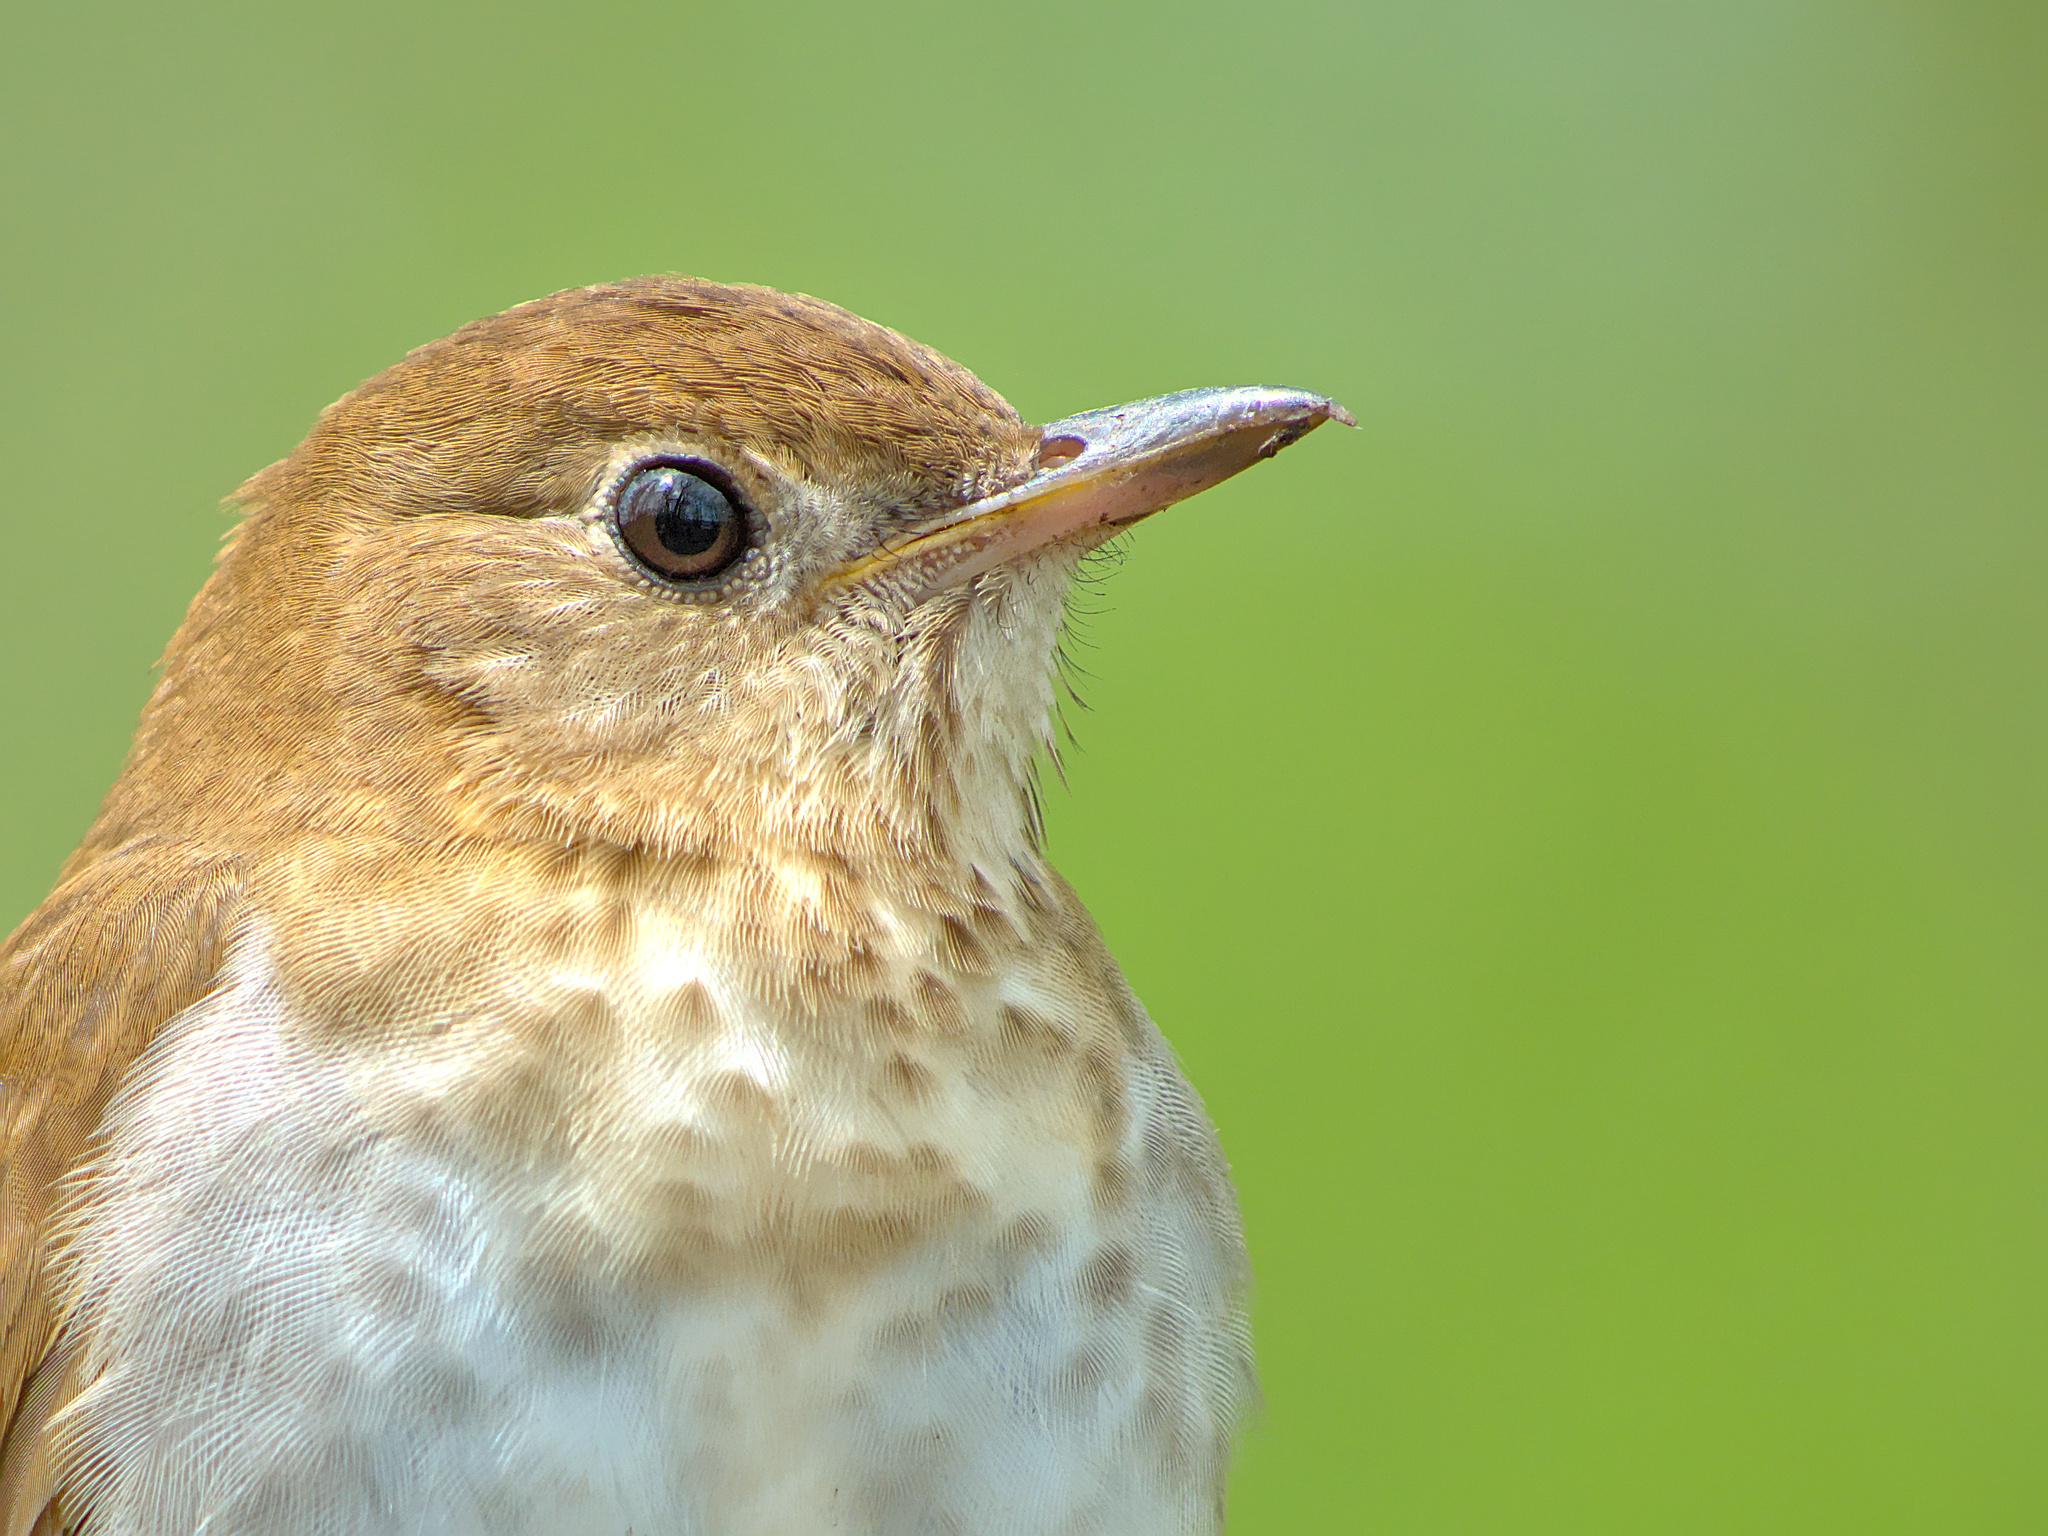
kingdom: Animalia
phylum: Chordata
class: Aves
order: Passeriformes
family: Turdidae
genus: Catharus
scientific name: Catharus fuscescens
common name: Veery
